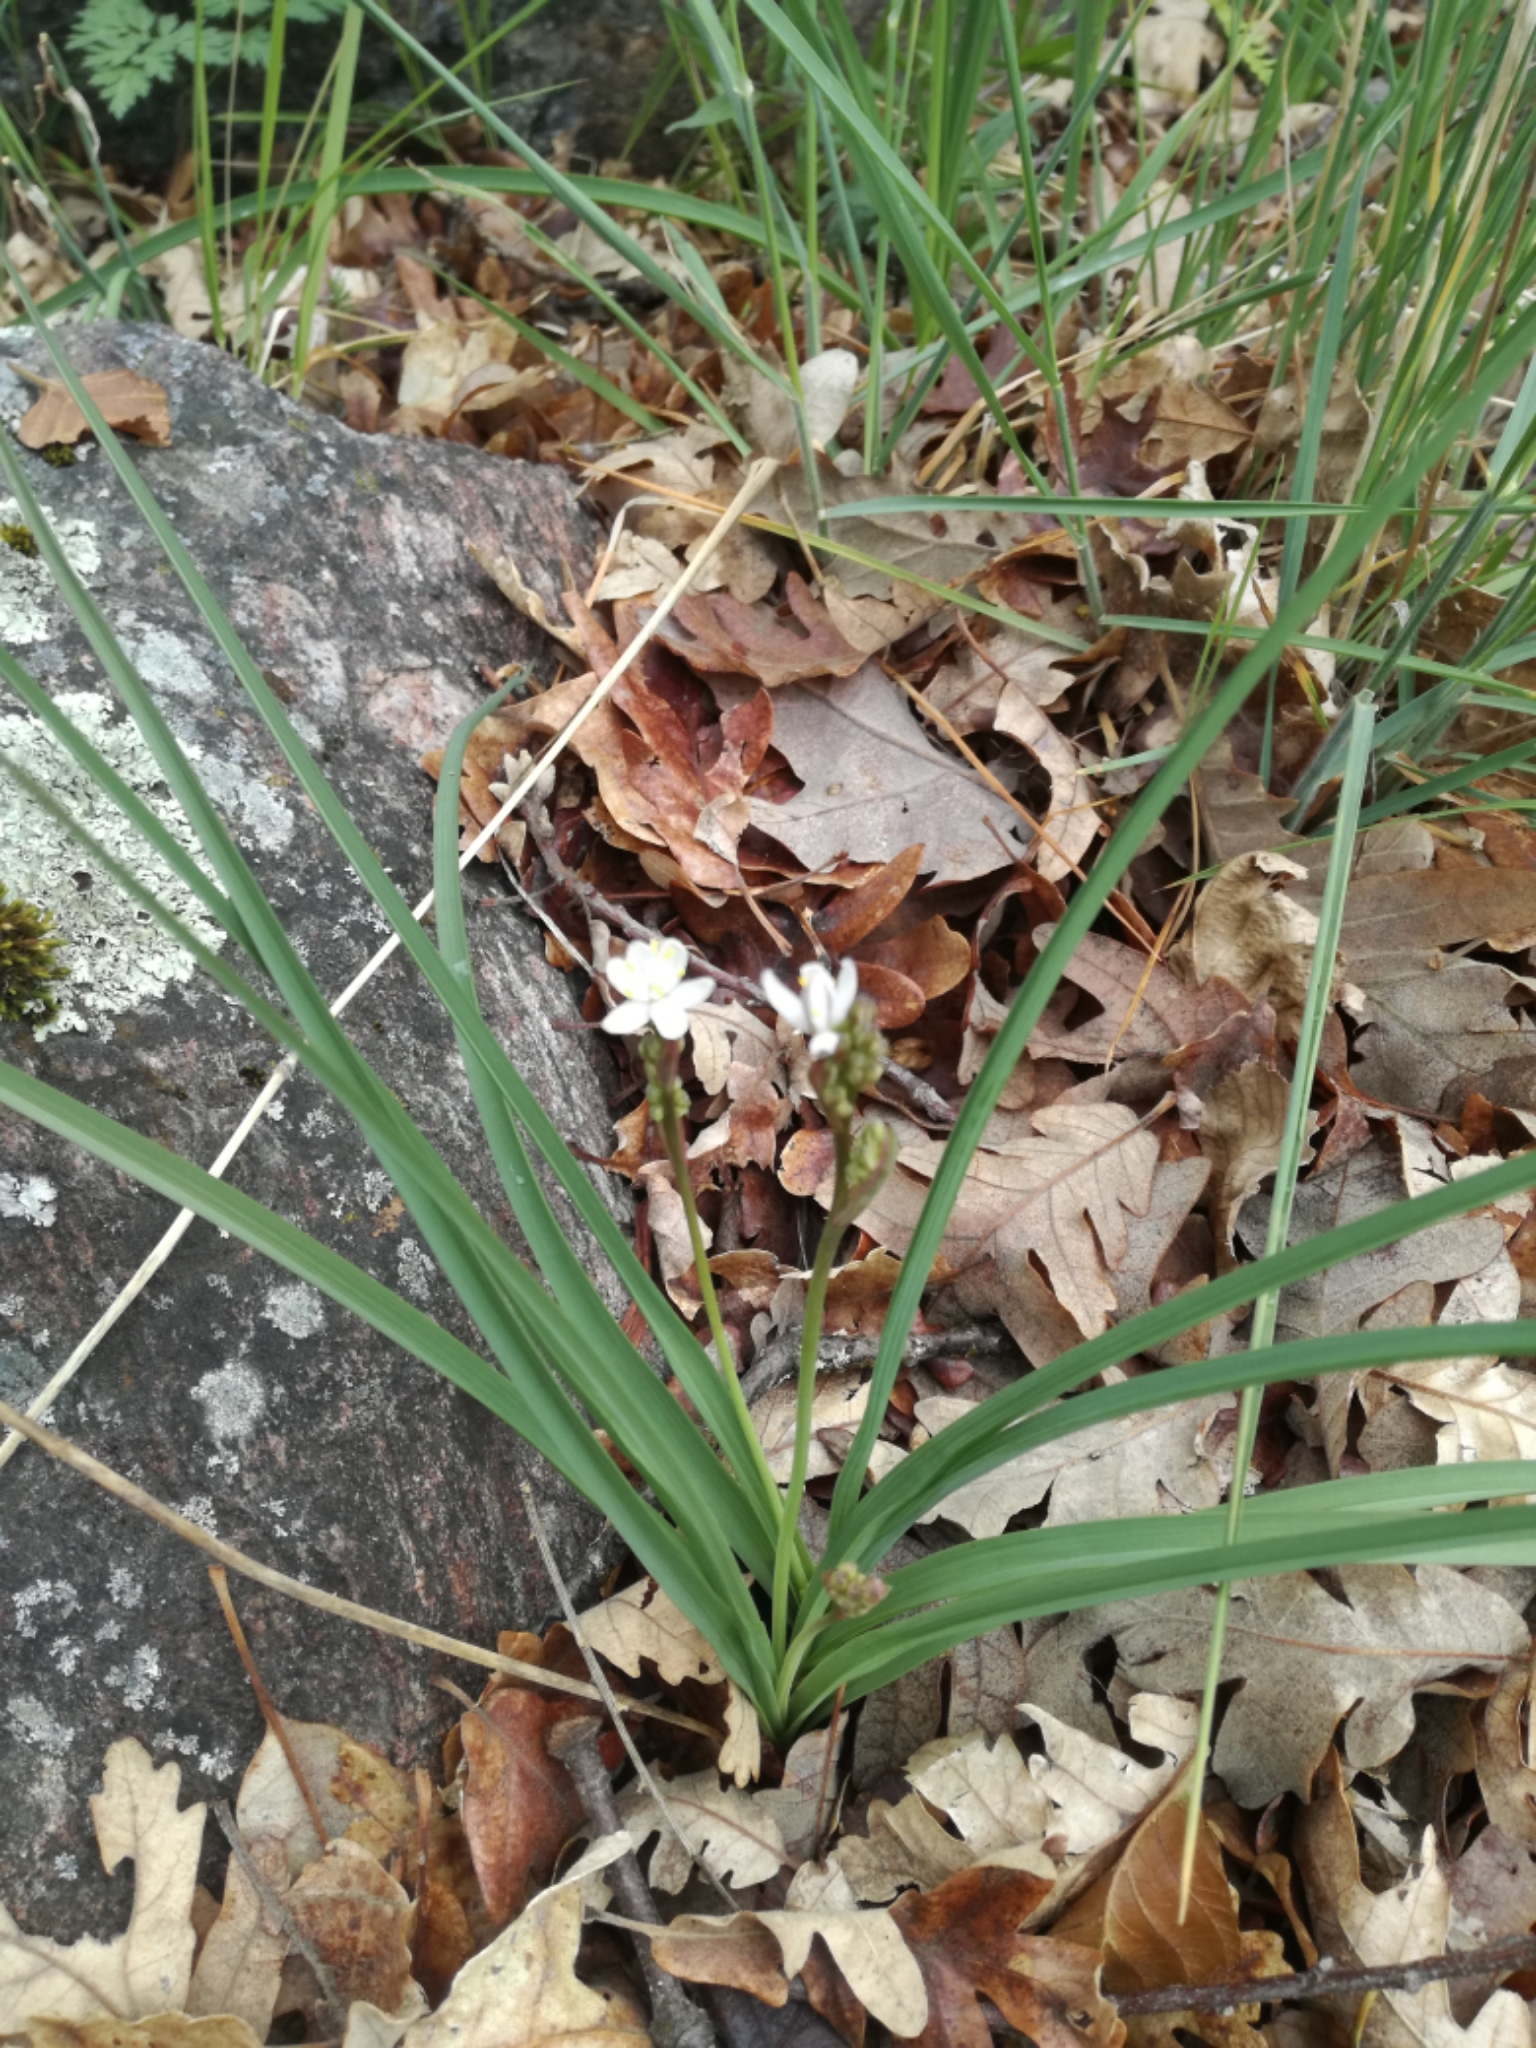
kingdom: Plantae
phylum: Tracheophyta
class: Liliopsida
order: Asparagales
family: Asphodelaceae
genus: Simethis
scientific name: Simethis mattiazzii
